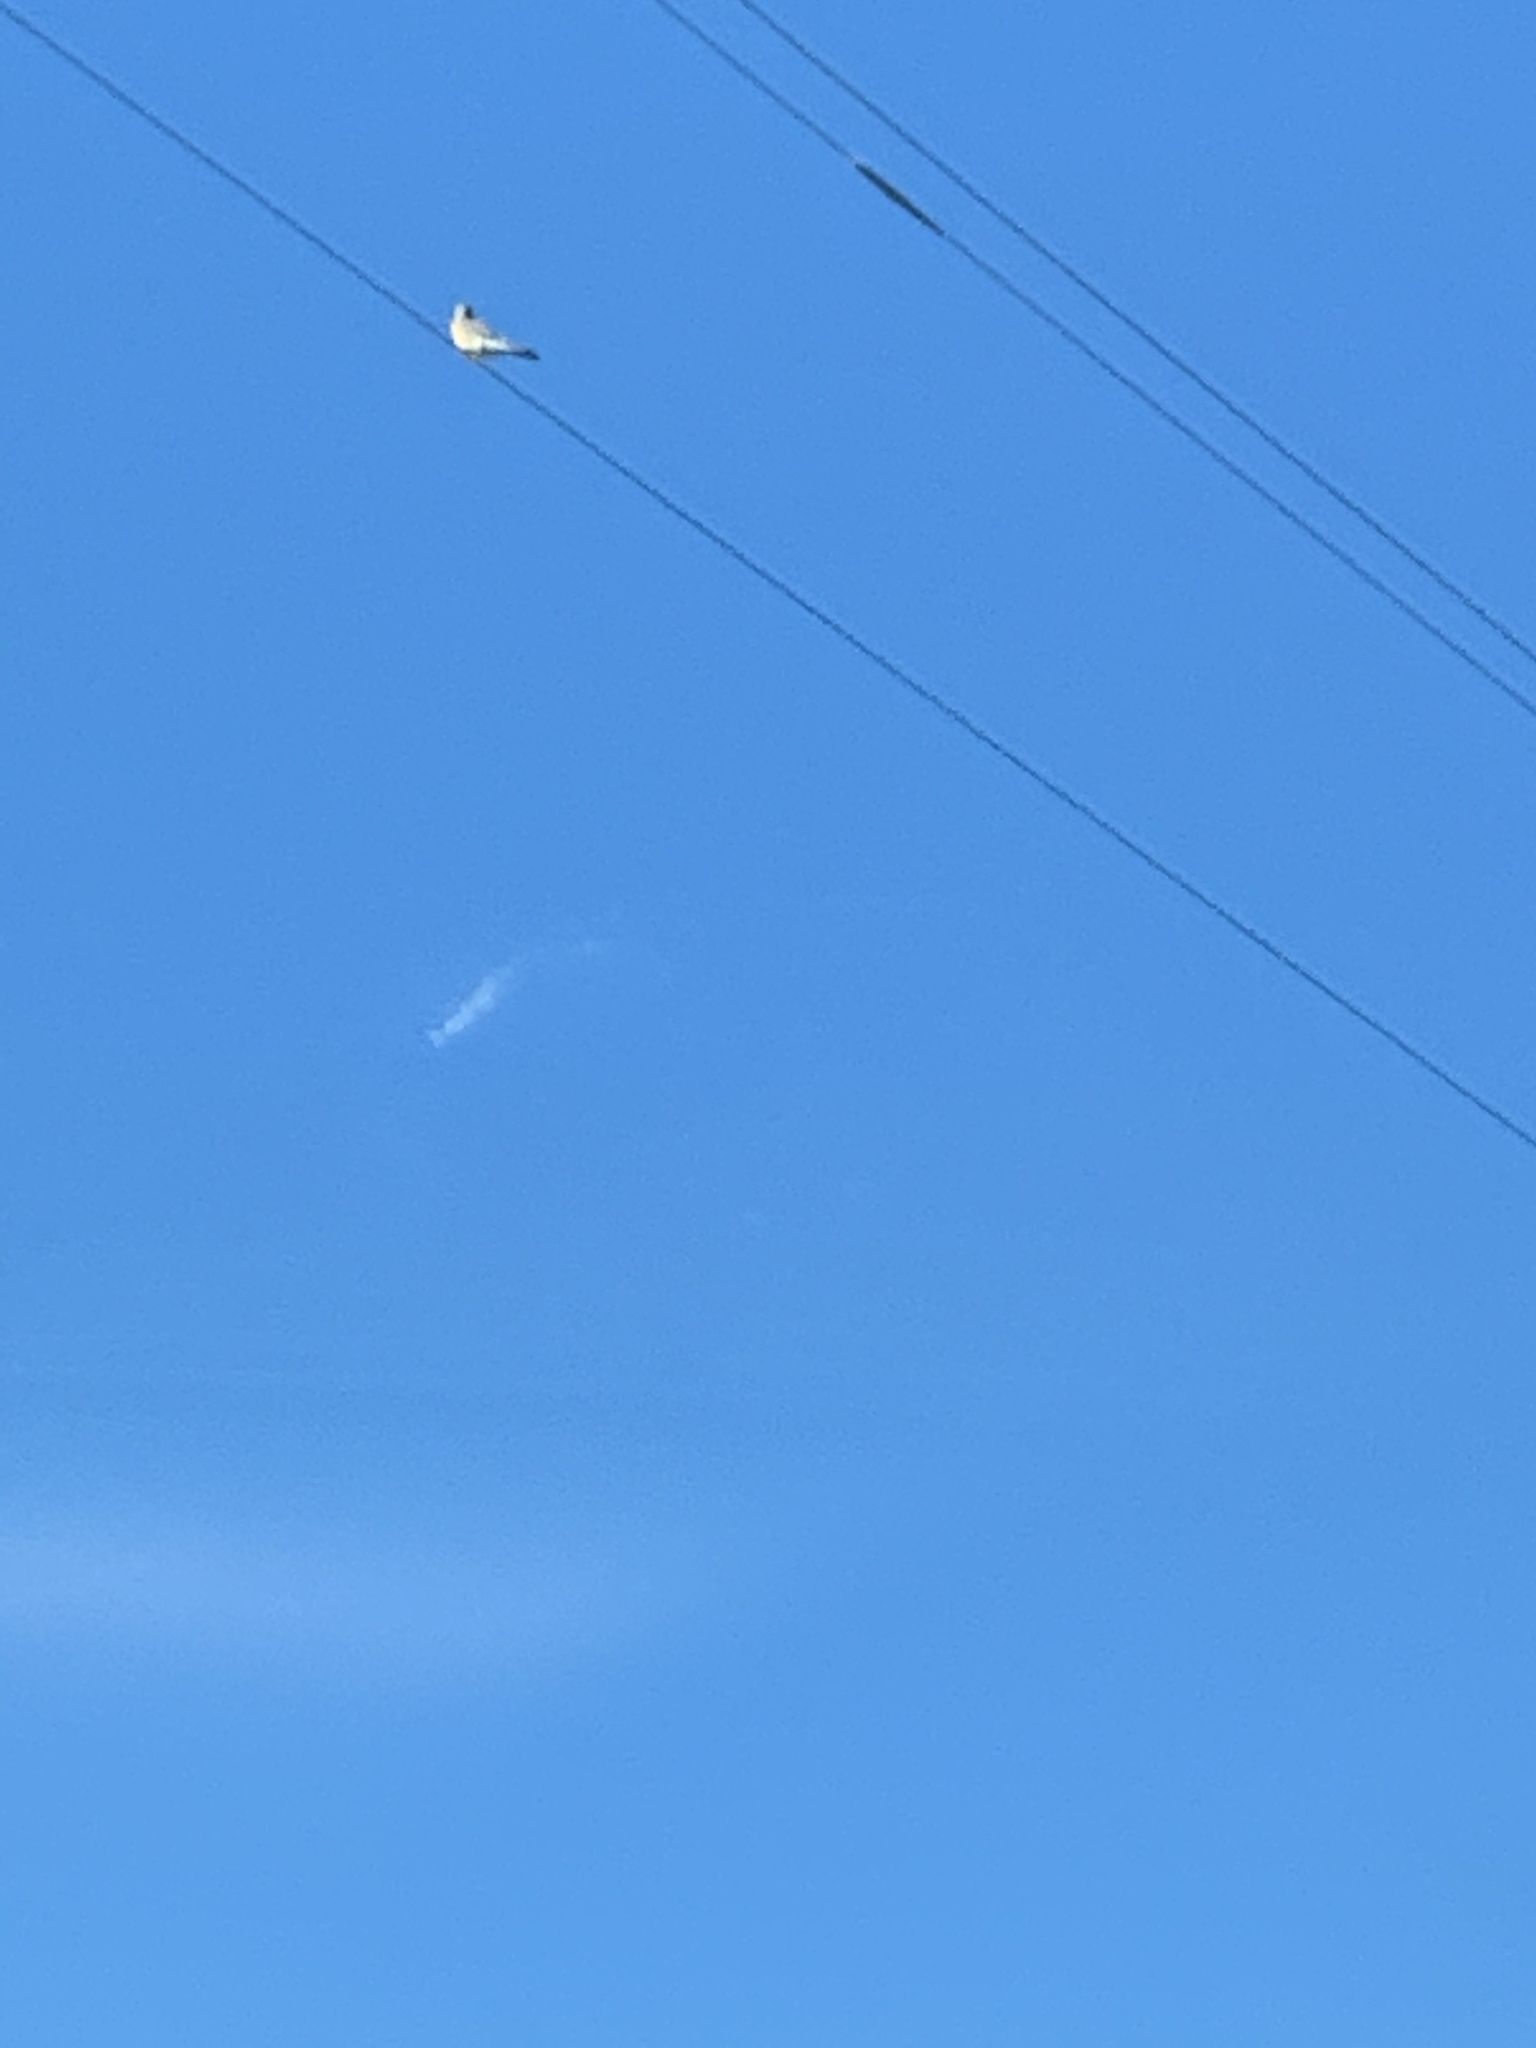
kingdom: Animalia
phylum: Chordata
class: Aves
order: Falconiformes
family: Falconidae
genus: Falco
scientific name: Falco sparverius
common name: American kestrel
